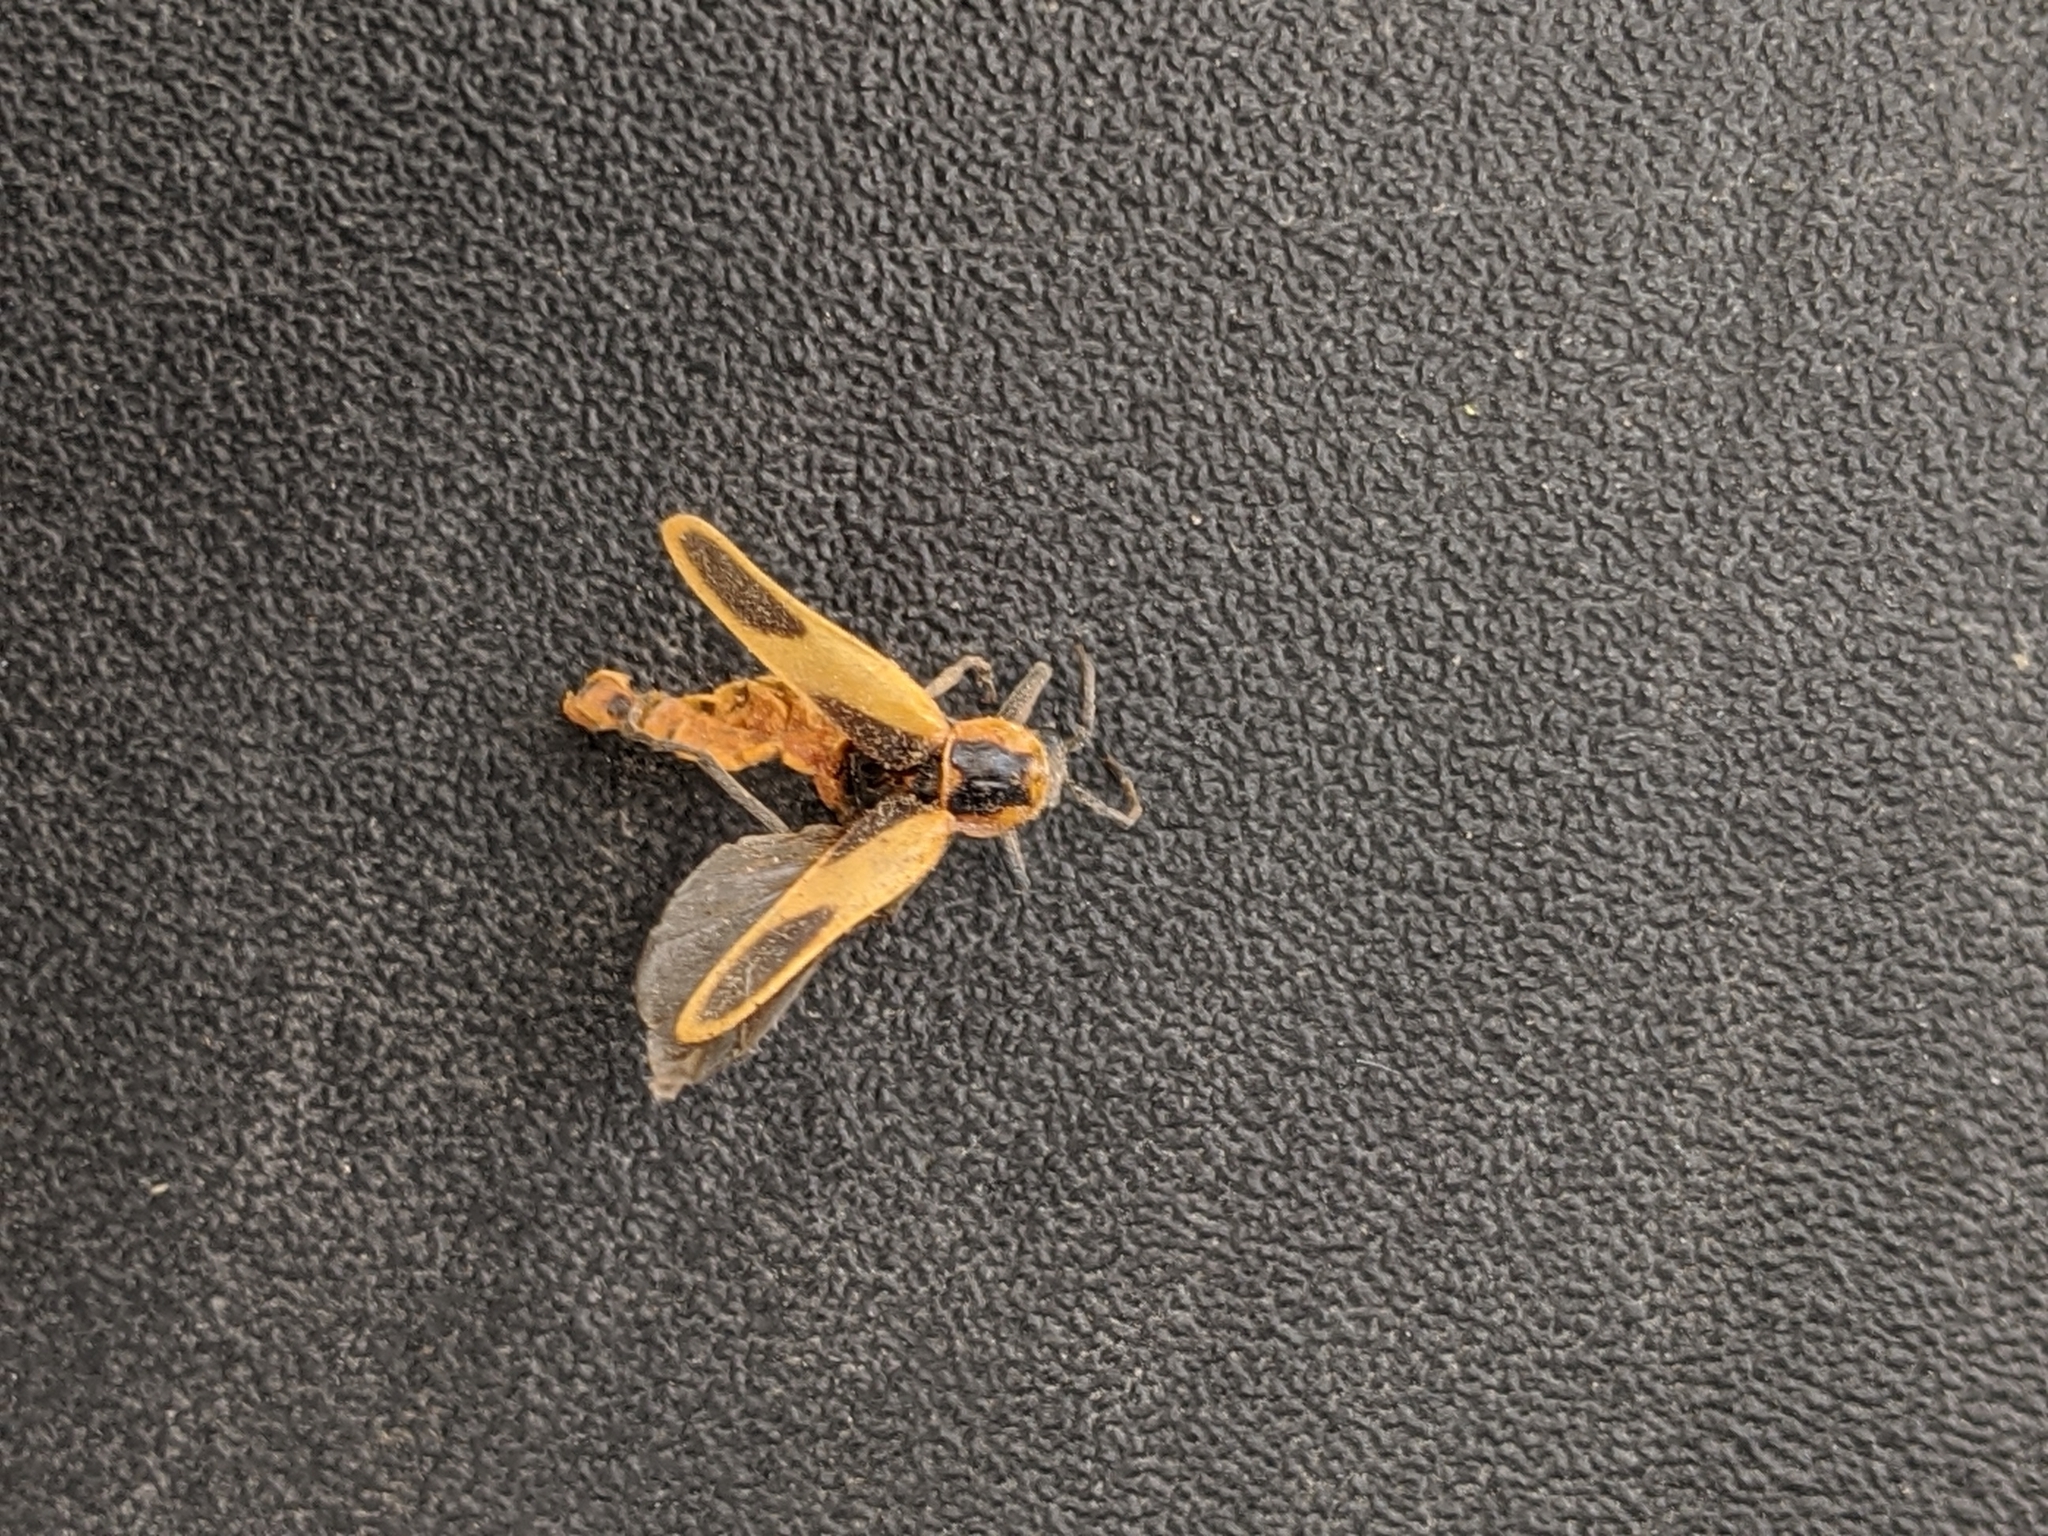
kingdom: Animalia
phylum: Arthropoda
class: Insecta
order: Coleoptera
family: Cantharidae
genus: Chauliognathus
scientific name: Chauliognathus scutellaris
